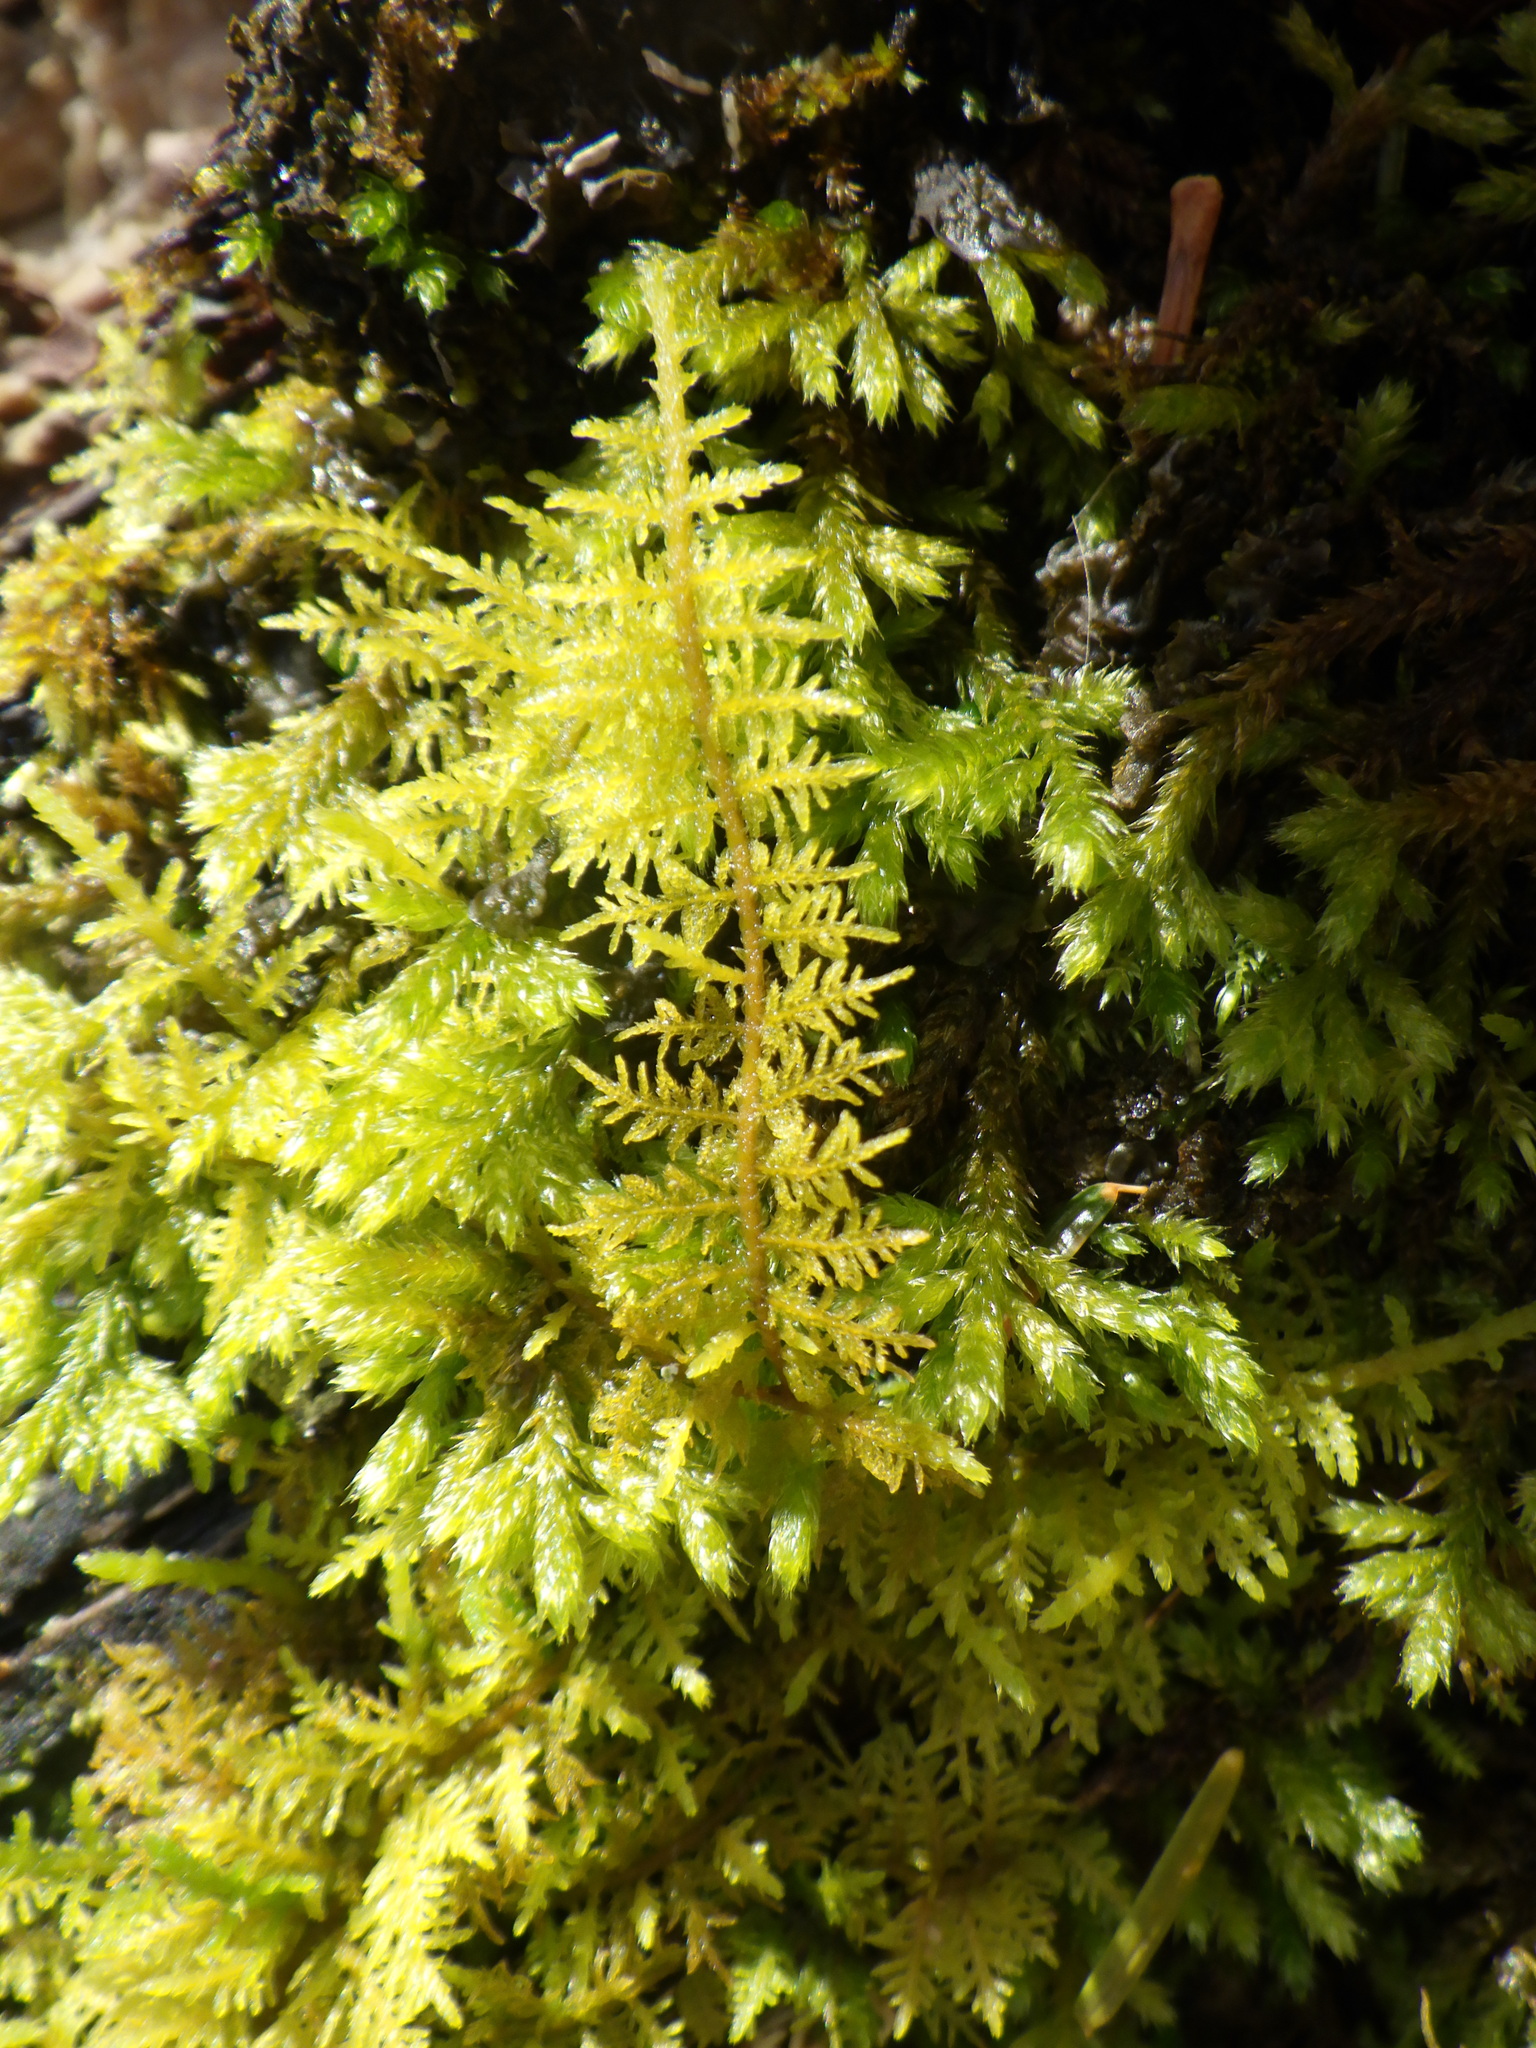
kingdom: Plantae
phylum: Bryophyta
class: Bryopsida
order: Hypnales
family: Thuidiaceae
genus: Thuidium
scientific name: Thuidium delicatulum
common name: Delicate fern moss
